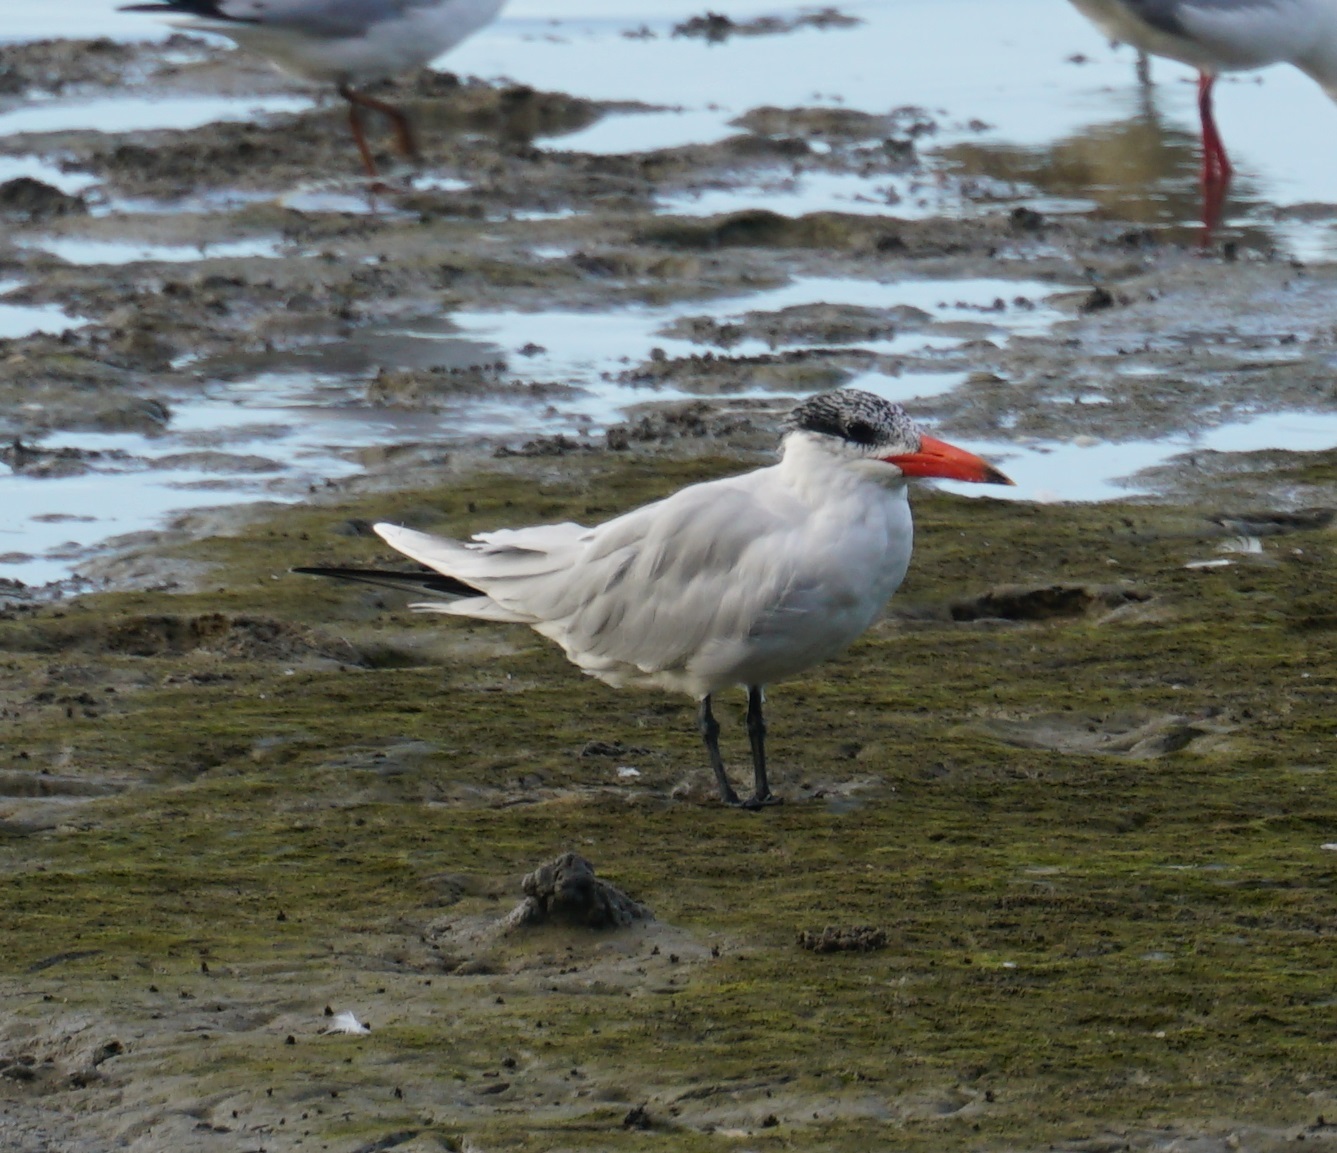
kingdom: Animalia
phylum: Chordata
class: Aves
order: Charadriiformes
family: Laridae
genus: Hydroprogne
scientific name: Hydroprogne caspia
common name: Caspian tern
